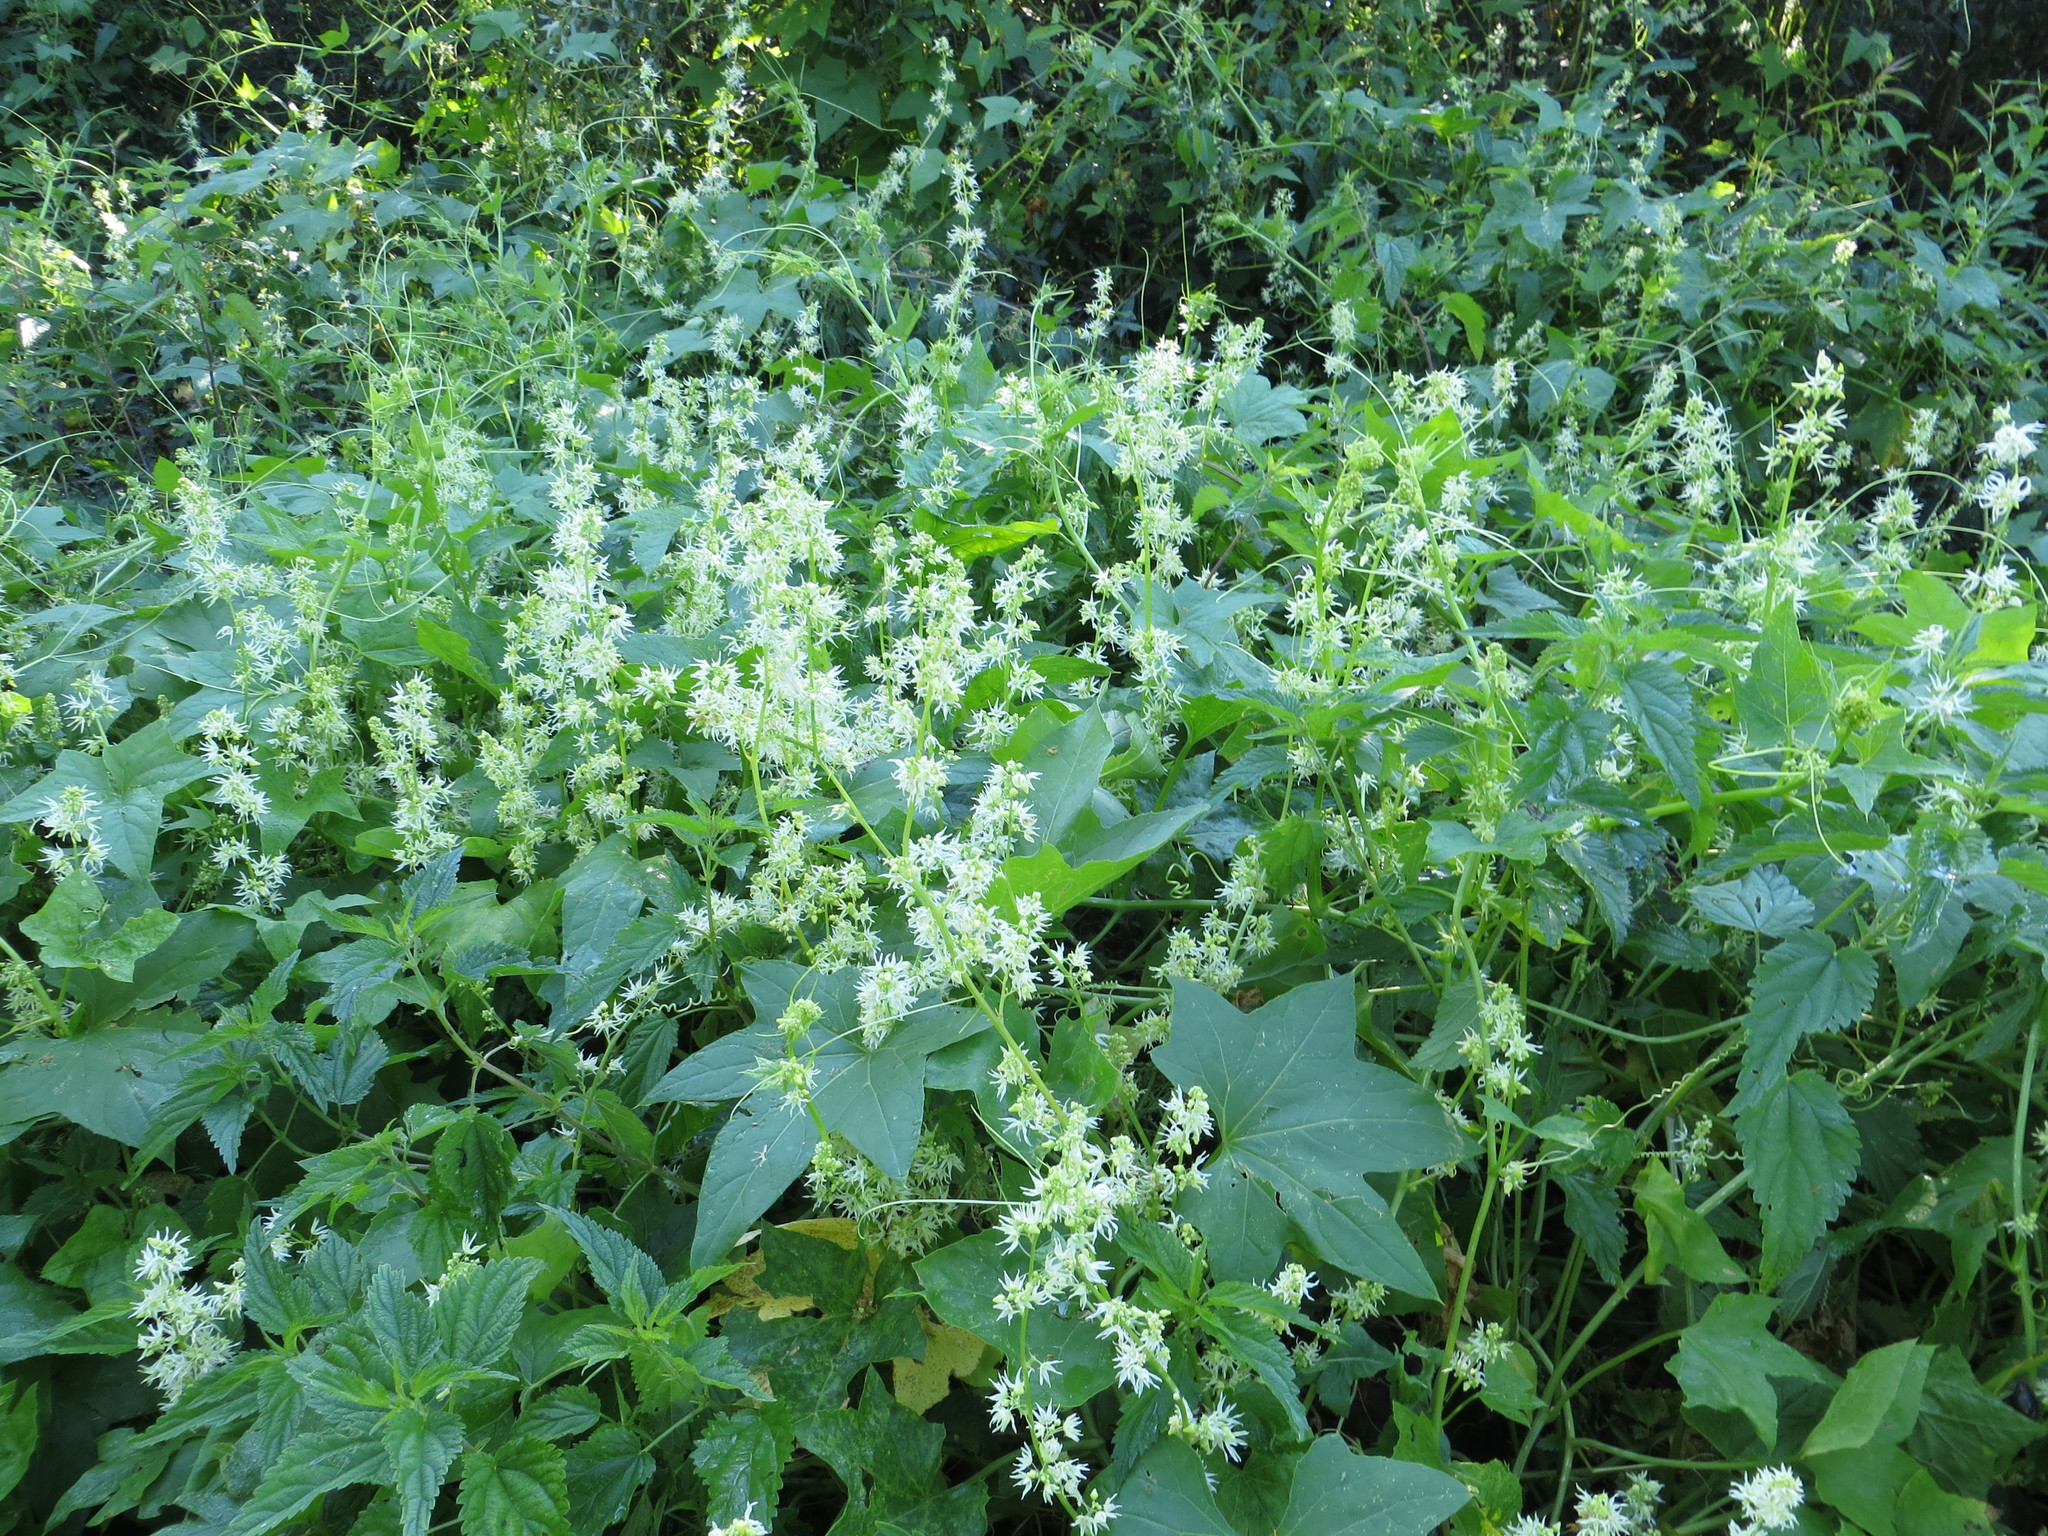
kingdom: Plantae
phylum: Tracheophyta
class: Magnoliopsida
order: Cucurbitales
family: Cucurbitaceae
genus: Echinocystis
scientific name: Echinocystis lobata
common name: Wild cucumber
